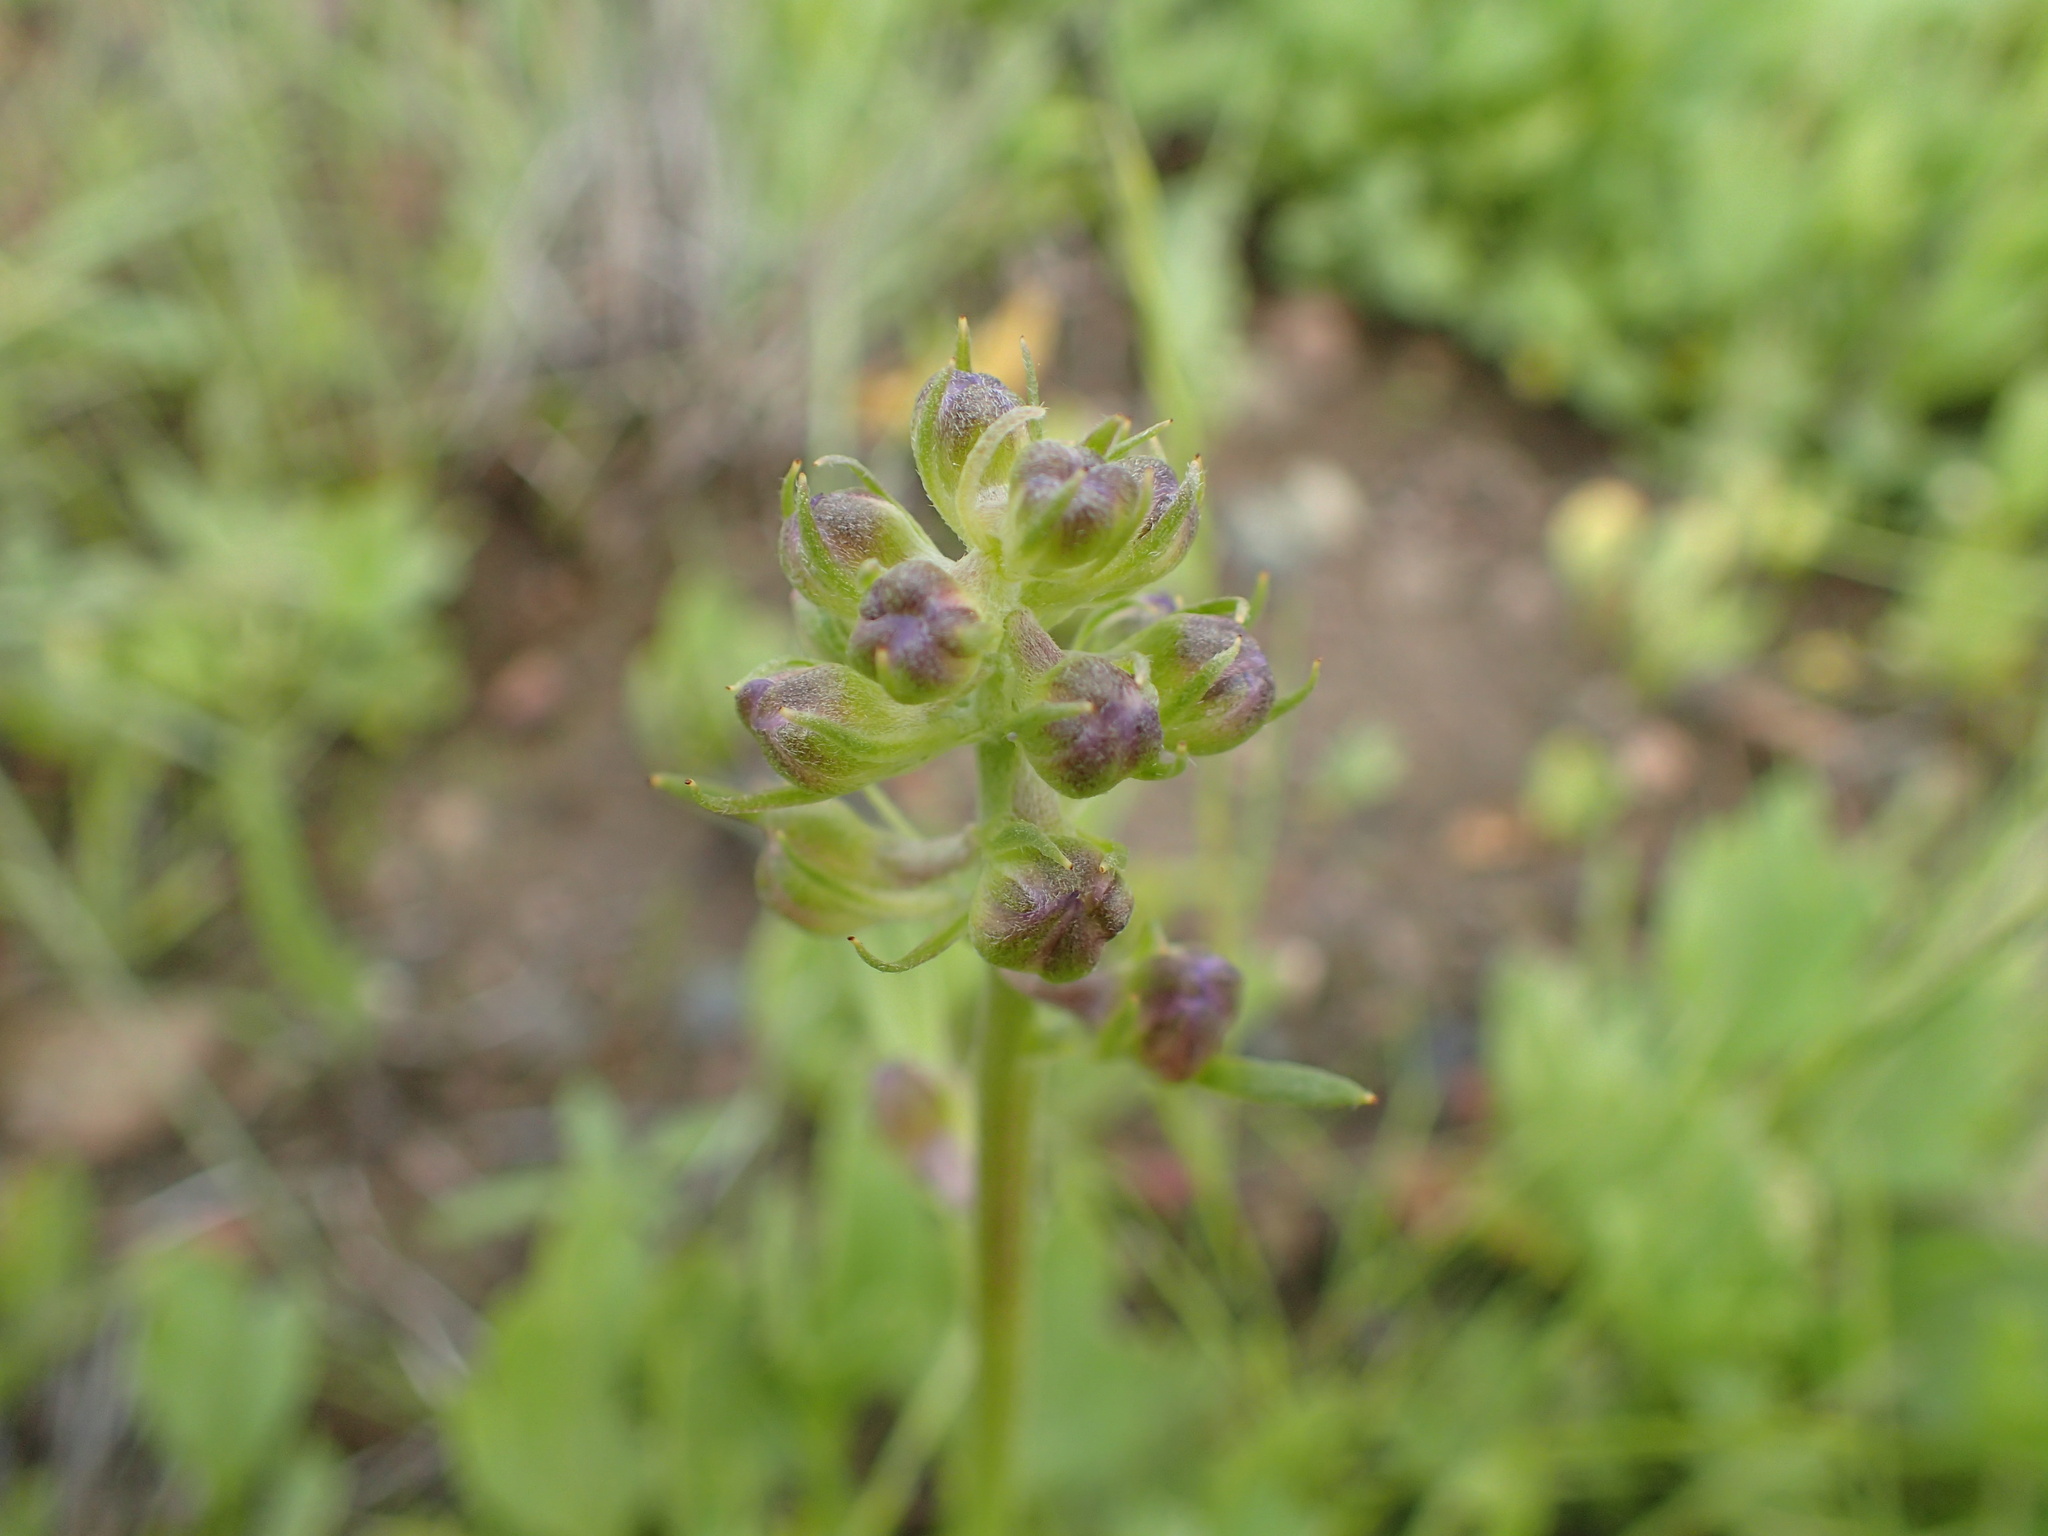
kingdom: Plantae
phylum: Tracheophyta
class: Magnoliopsida
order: Ranunculales
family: Ranunculaceae
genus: Delphinium
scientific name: Delphinium uliginosum
